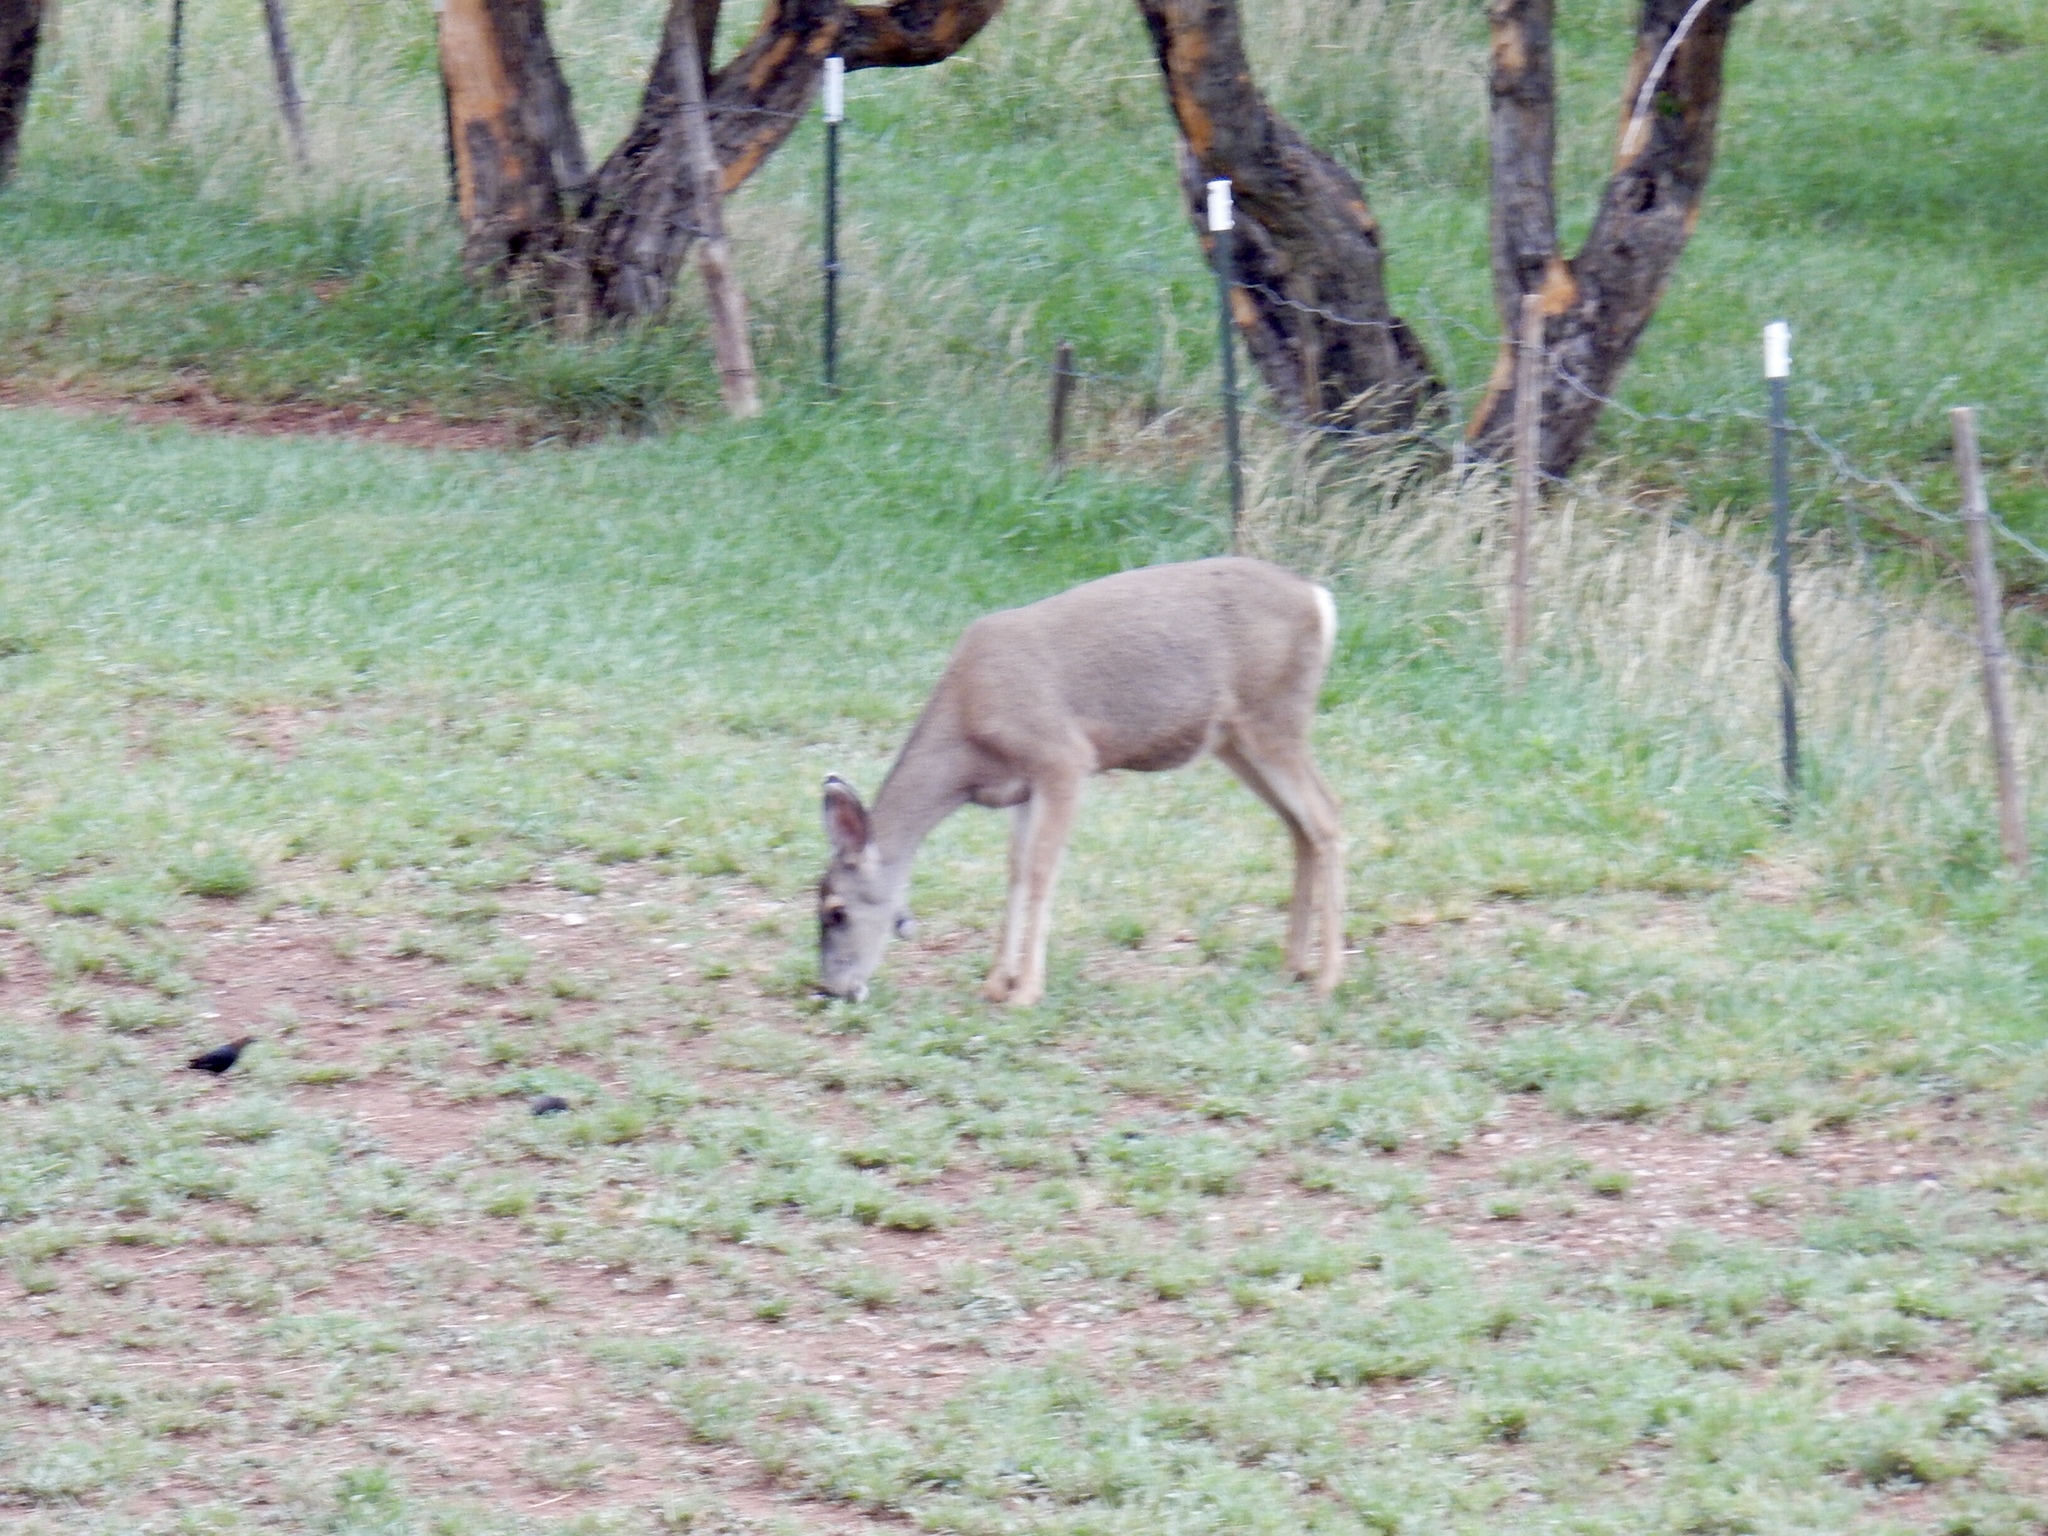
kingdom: Animalia
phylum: Chordata
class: Mammalia
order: Artiodactyla
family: Cervidae
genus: Odocoileus
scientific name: Odocoileus hemionus
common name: Mule deer
